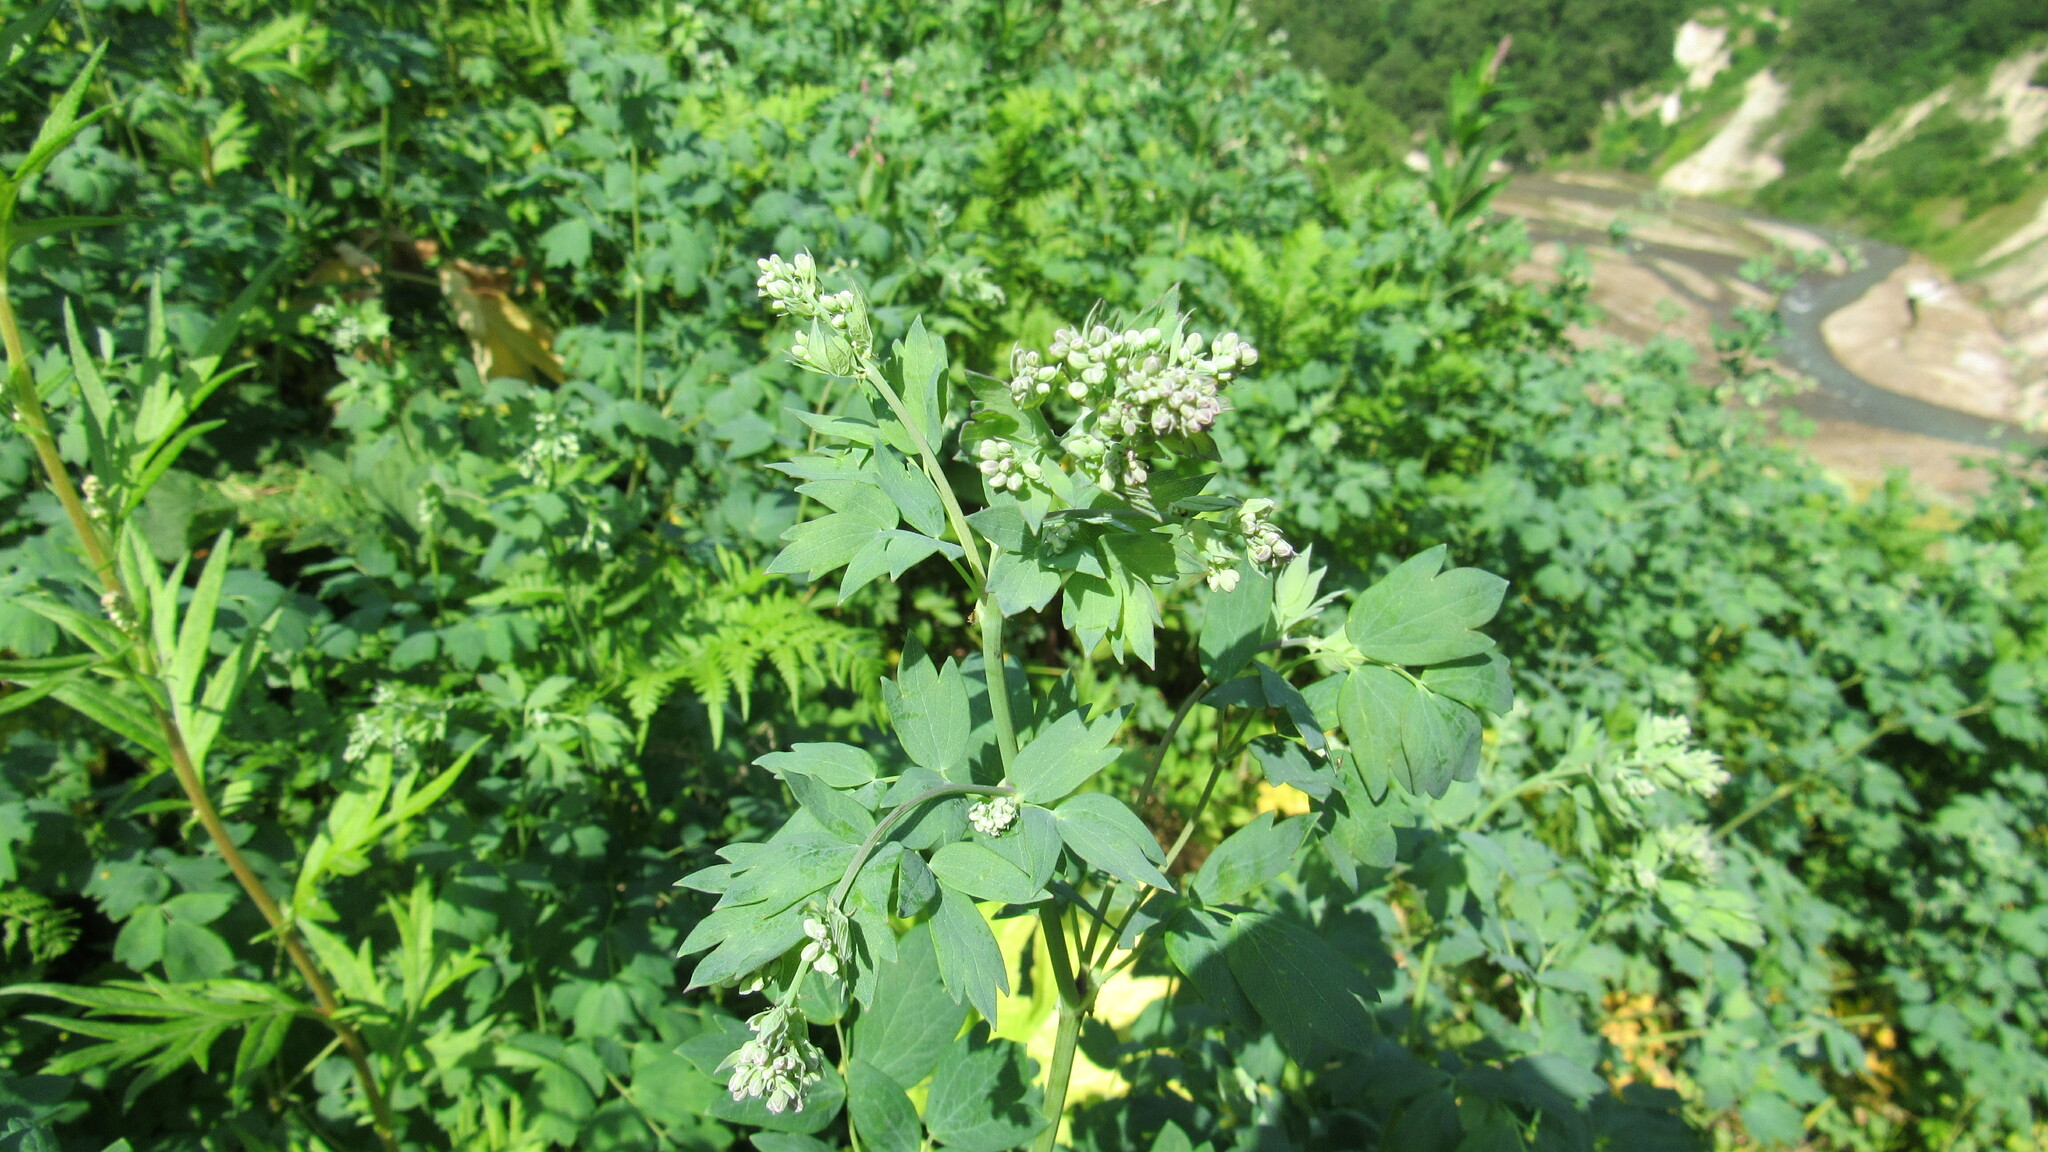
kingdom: Plantae
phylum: Tracheophyta
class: Magnoliopsida
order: Ranunculales
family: Ranunculaceae
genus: Thalictrum
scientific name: Thalictrum minus
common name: Lesser meadow-rue
